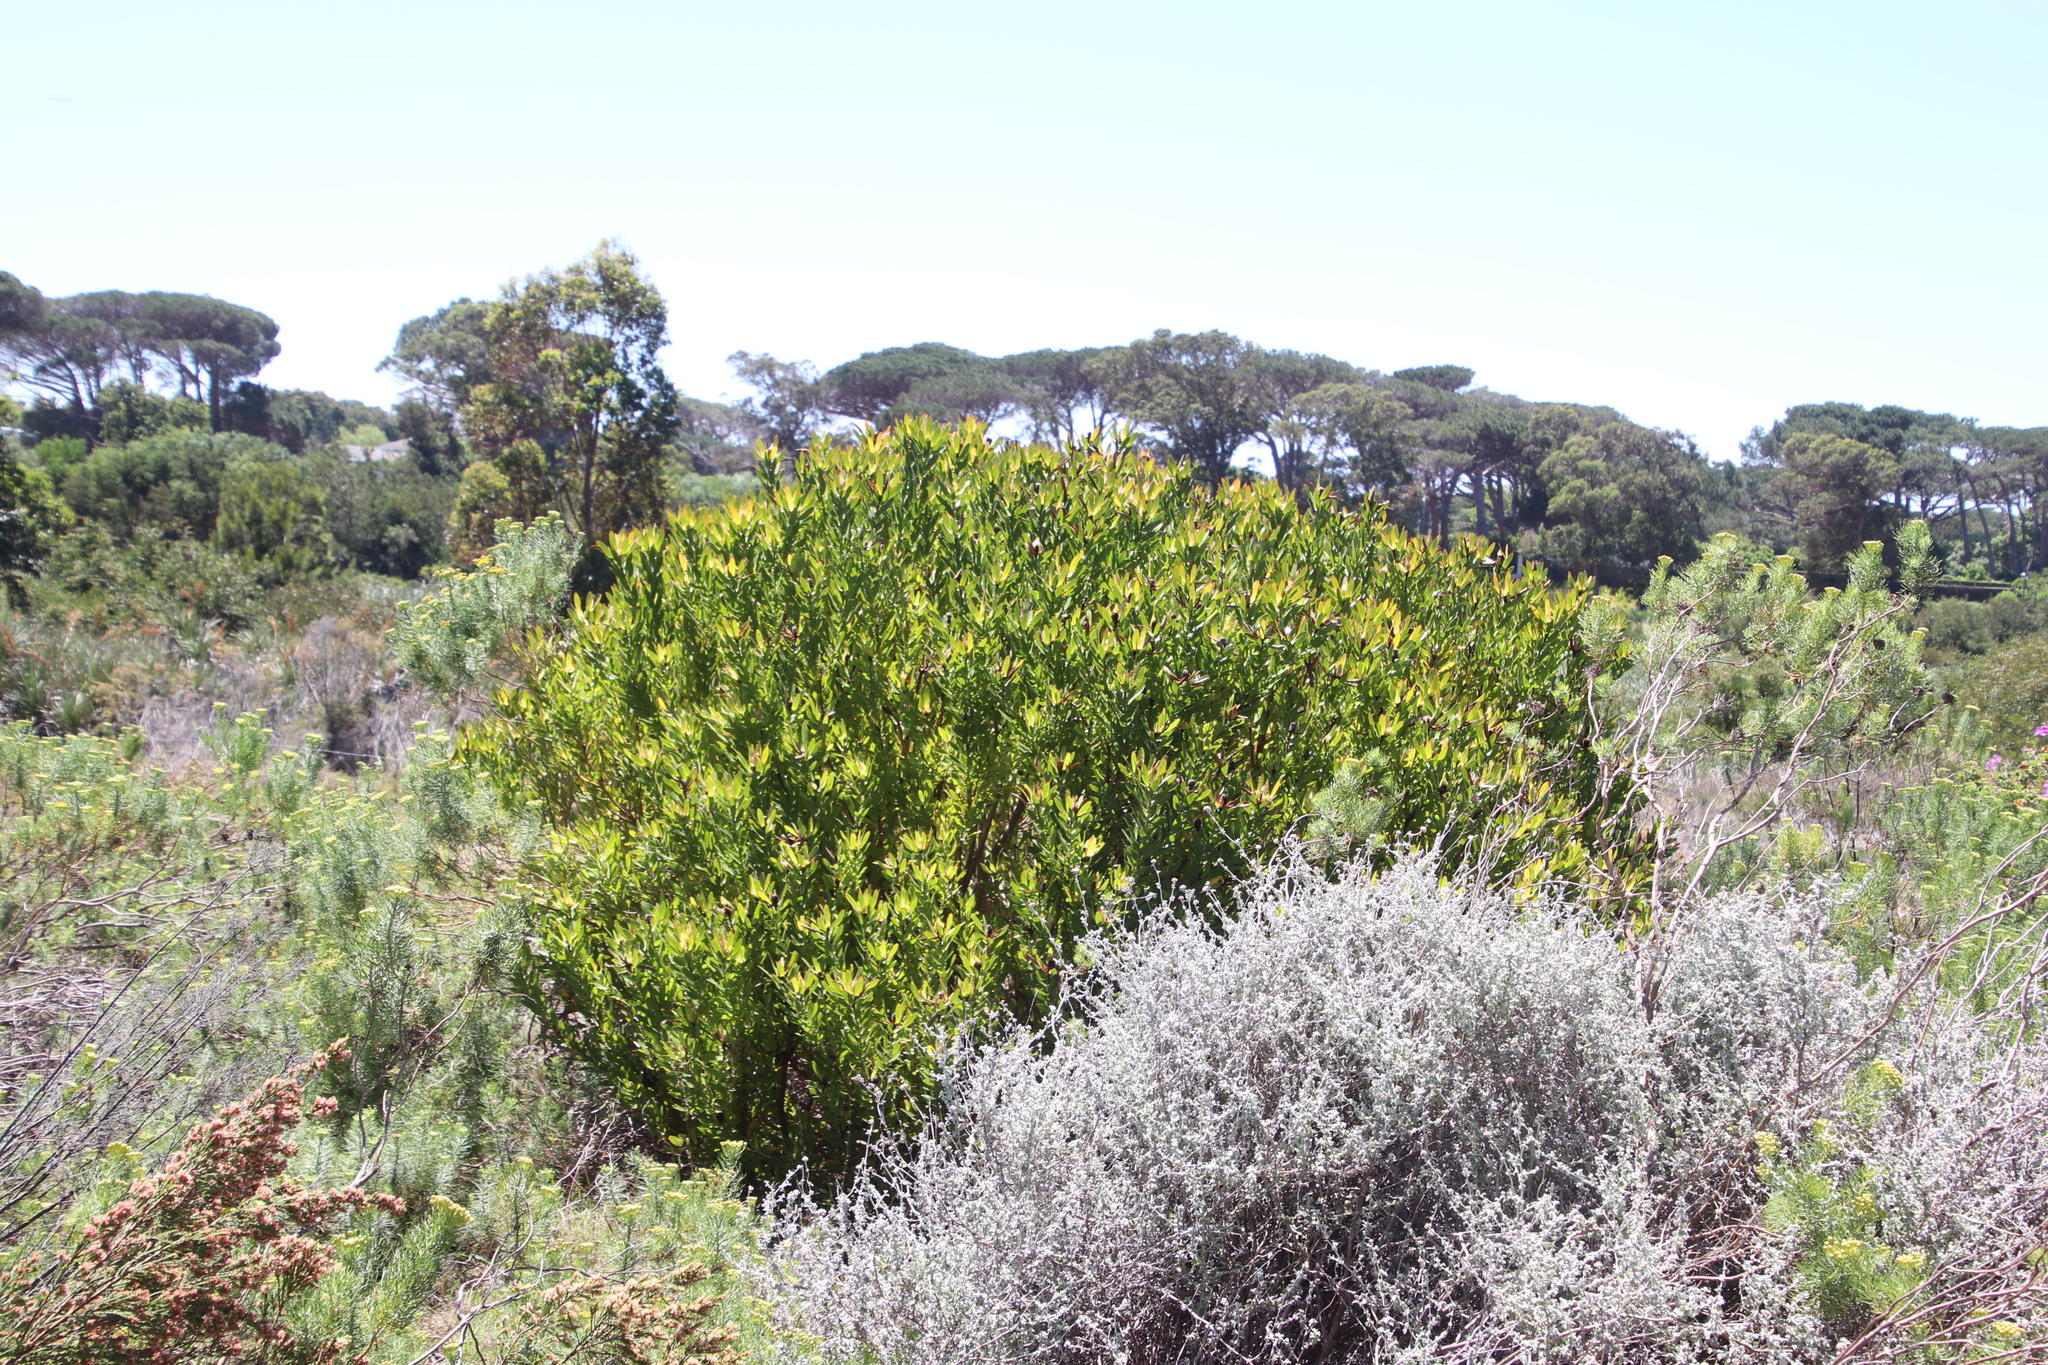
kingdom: Plantae
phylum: Tracheophyta
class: Magnoliopsida
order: Proteales
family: Proteaceae
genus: Leucadendron
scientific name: Leucadendron laureolum
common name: Golden sunshinebush
